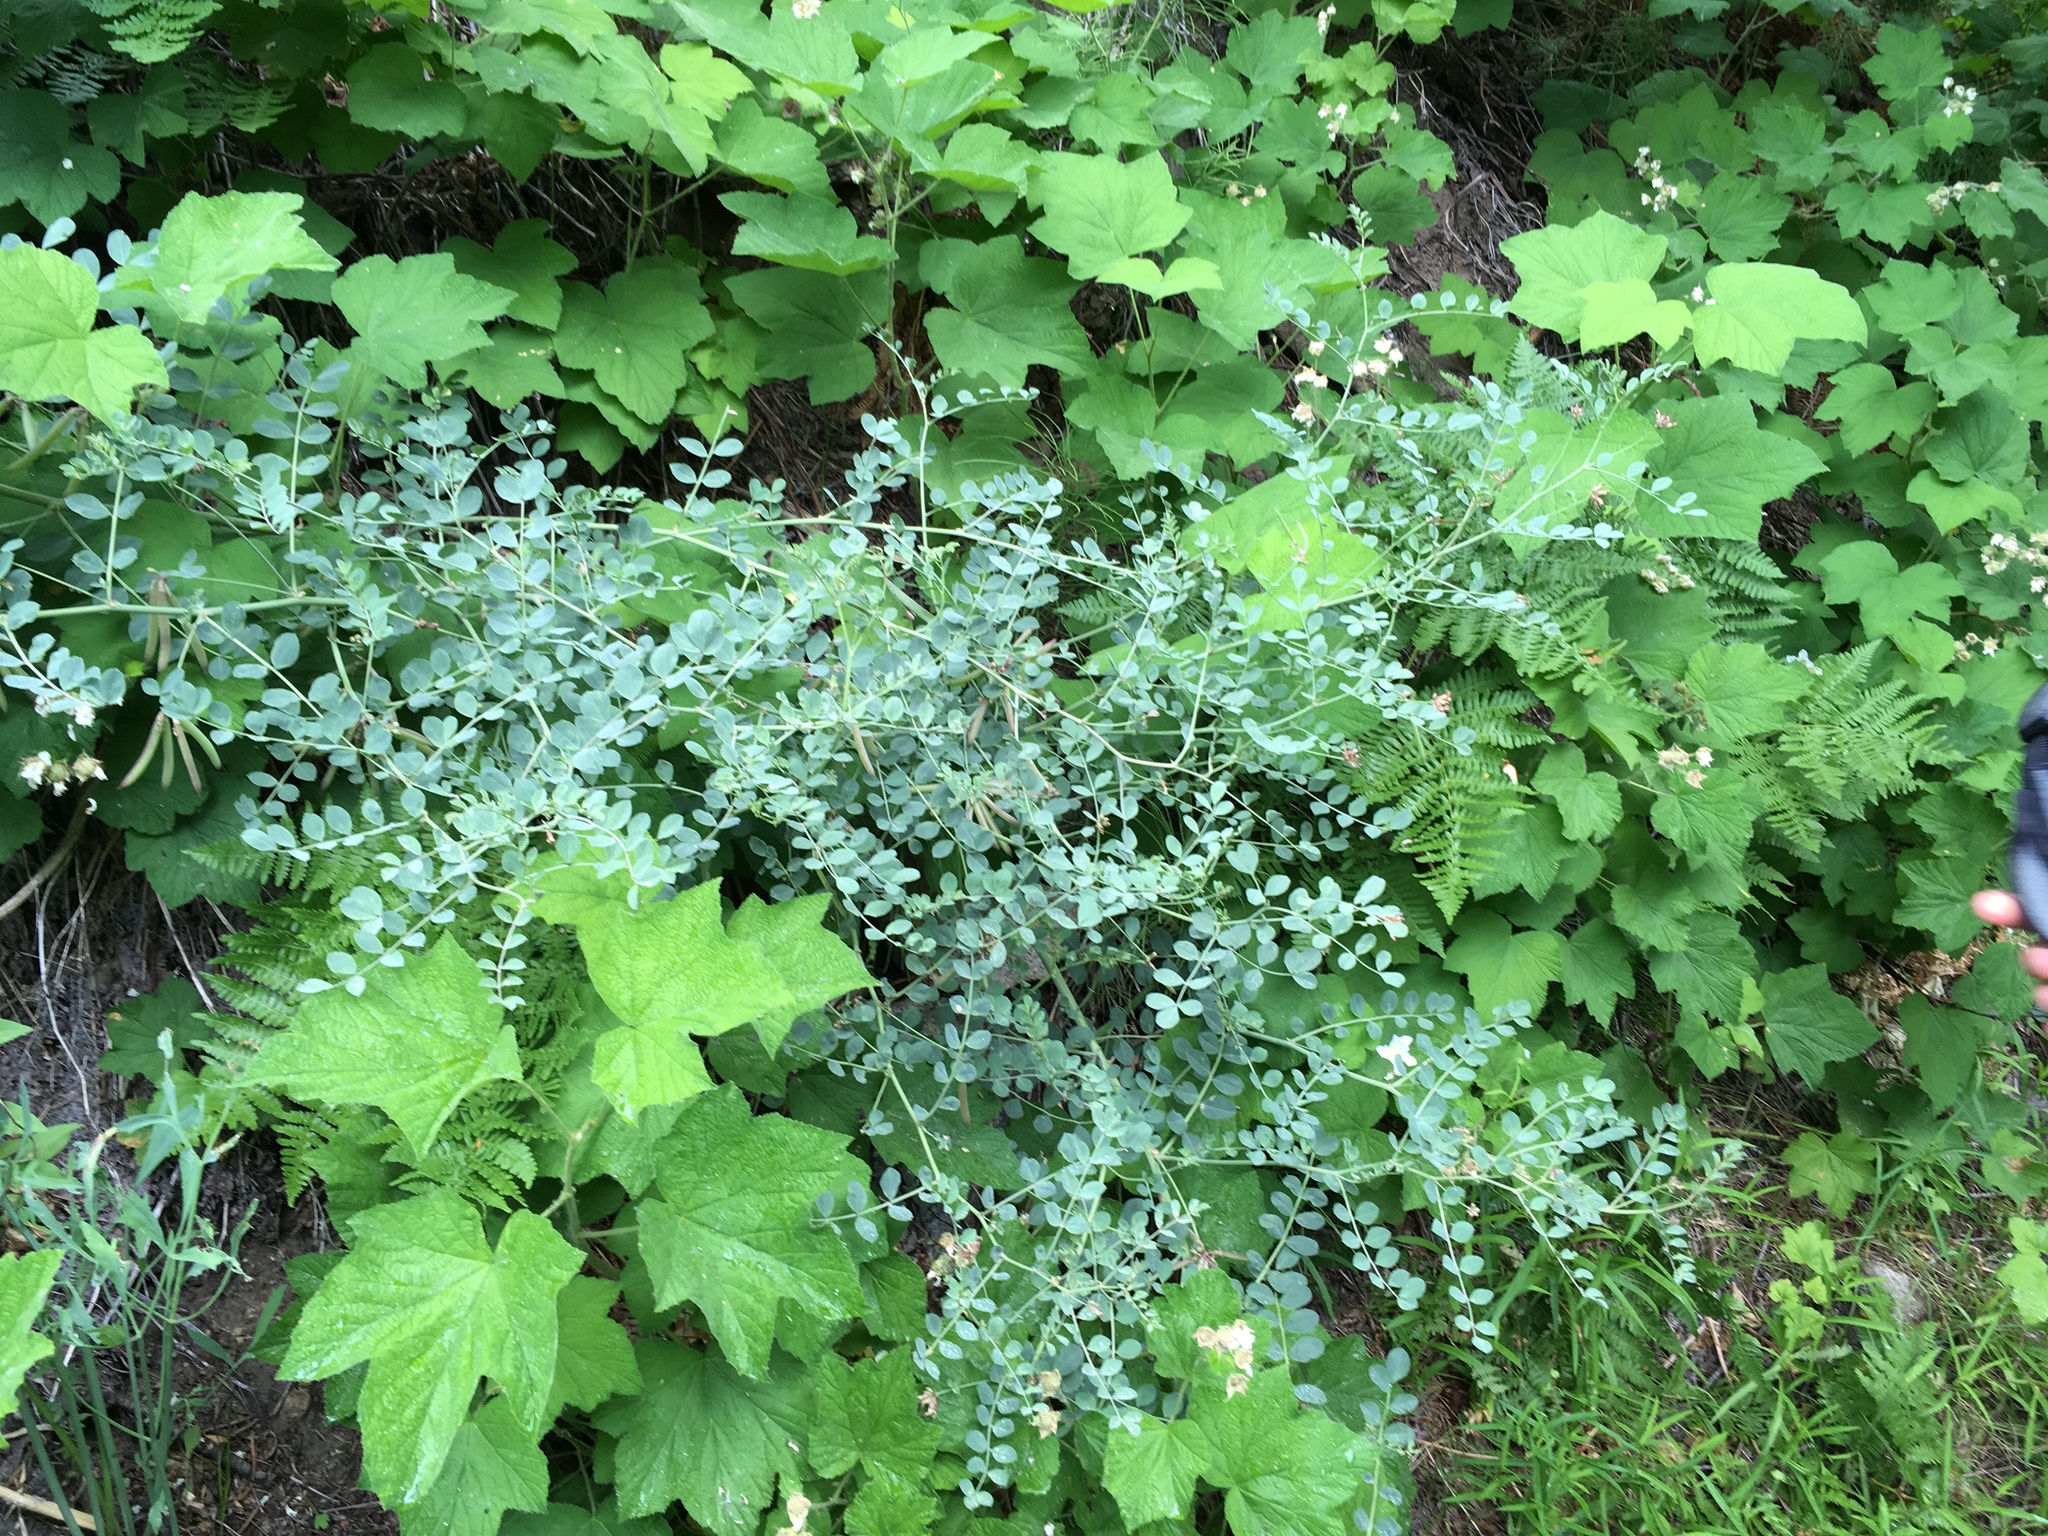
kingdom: Plantae
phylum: Tracheophyta
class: Magnoliopsida
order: Fabales
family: Fabaceae
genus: Hosackia
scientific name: Hosackia crassifolia
